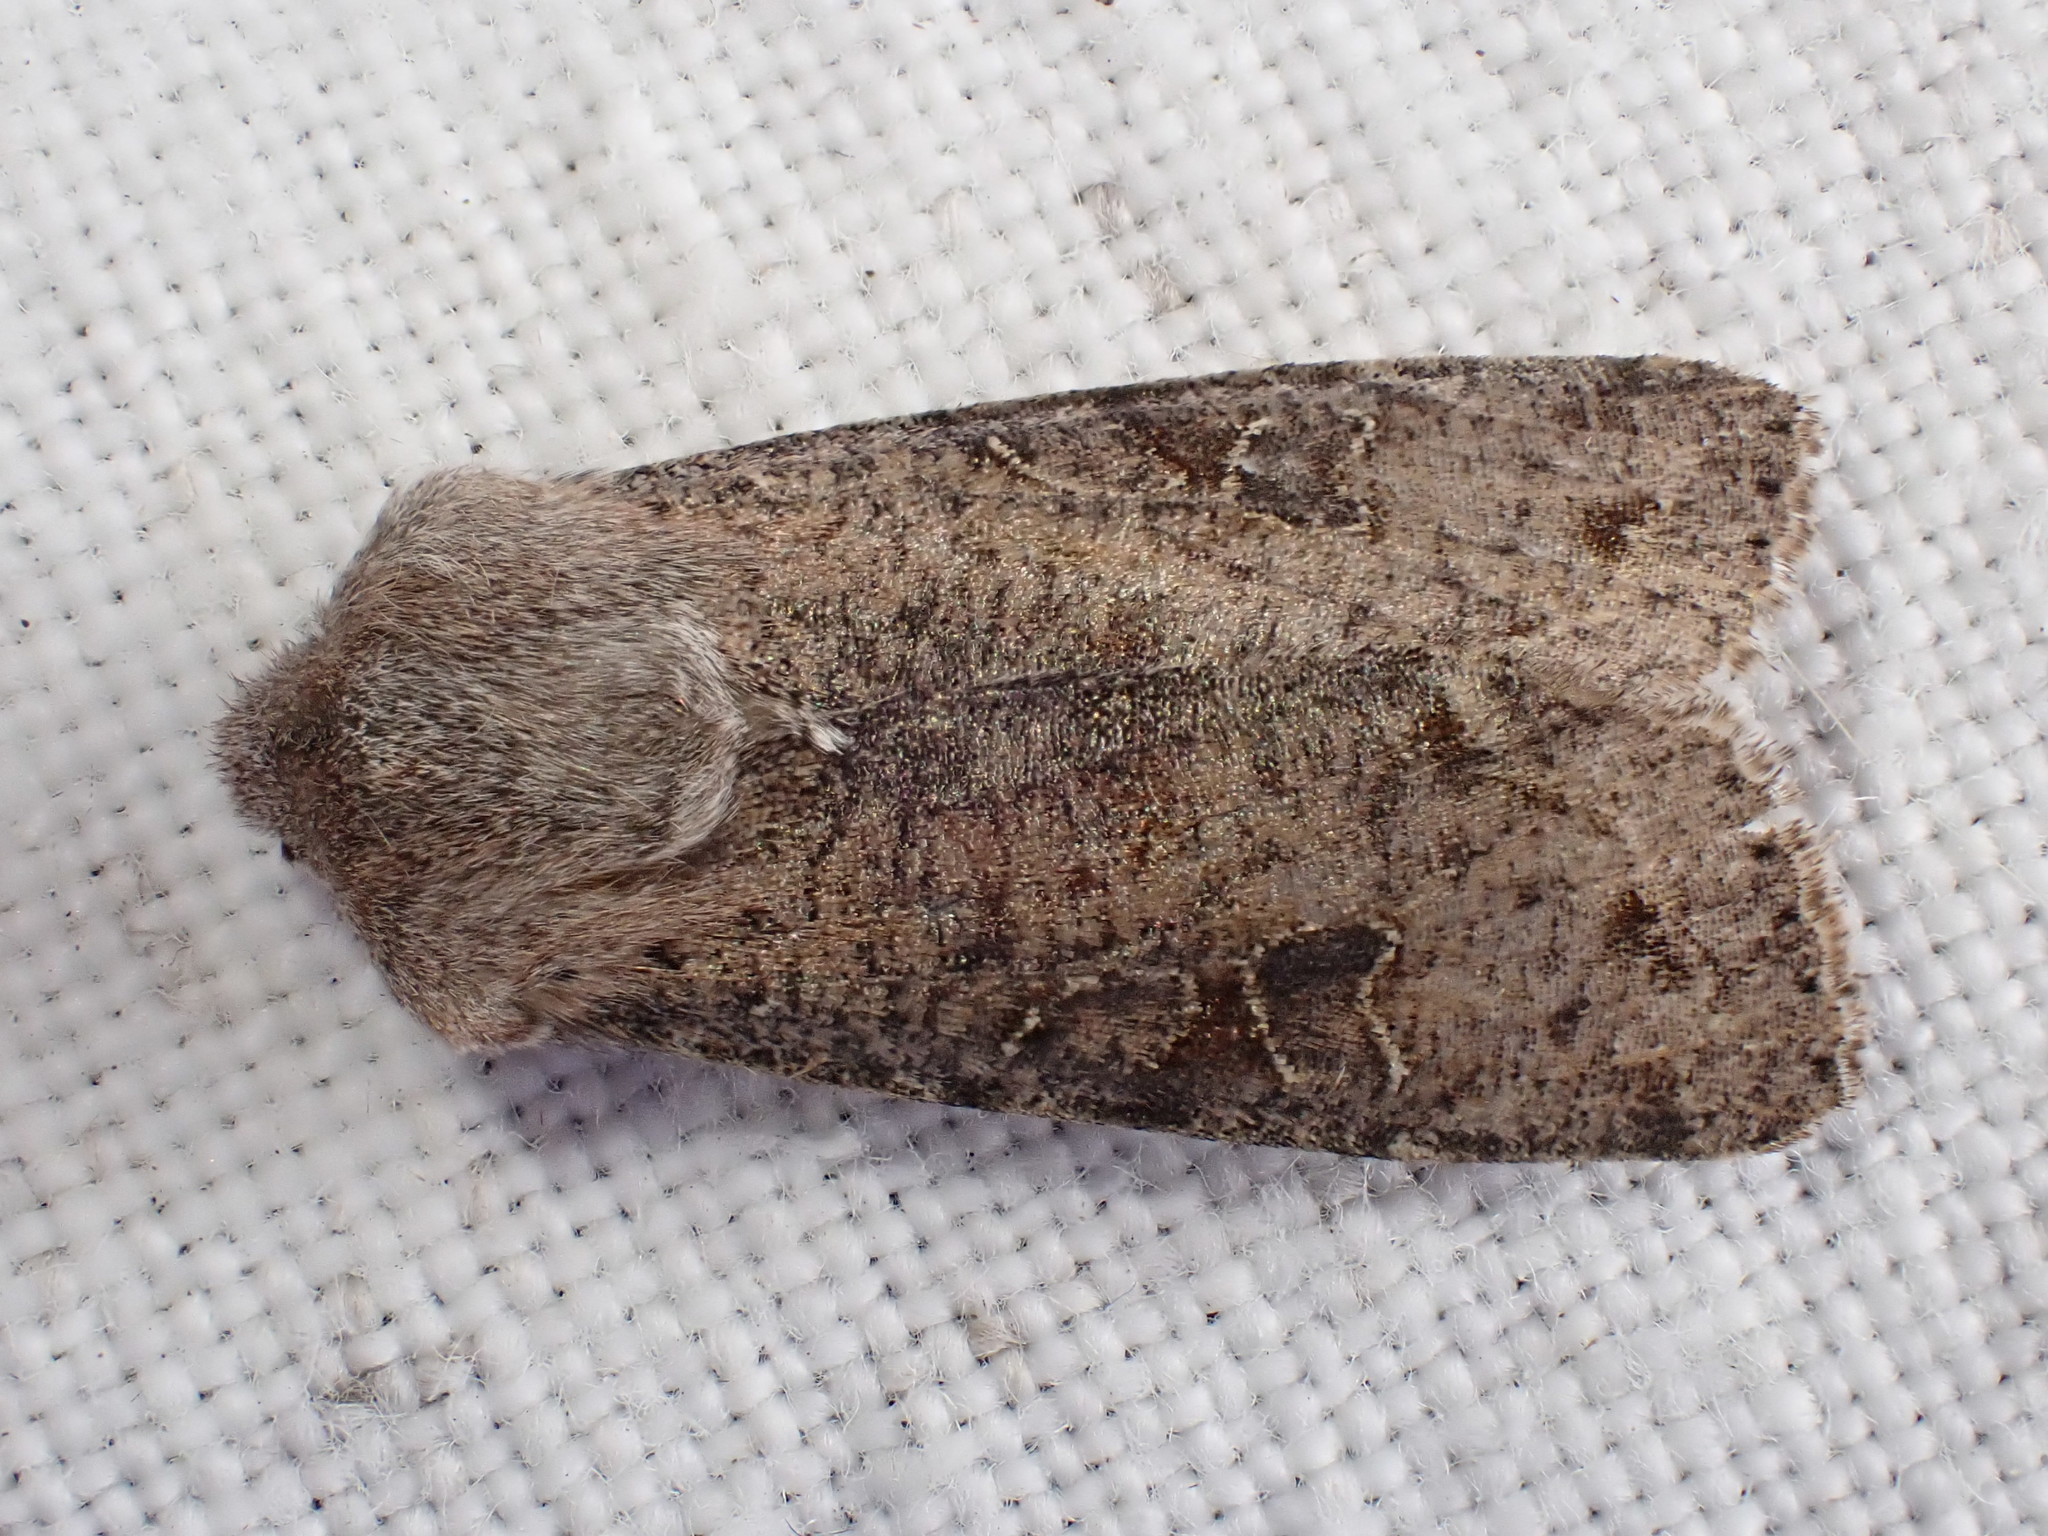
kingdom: Animalia
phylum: Arthropoda
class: Insecta
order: Lepidoptera
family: Noctuidae
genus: Orthosia
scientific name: Orthosia incerta
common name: Clouded drab
